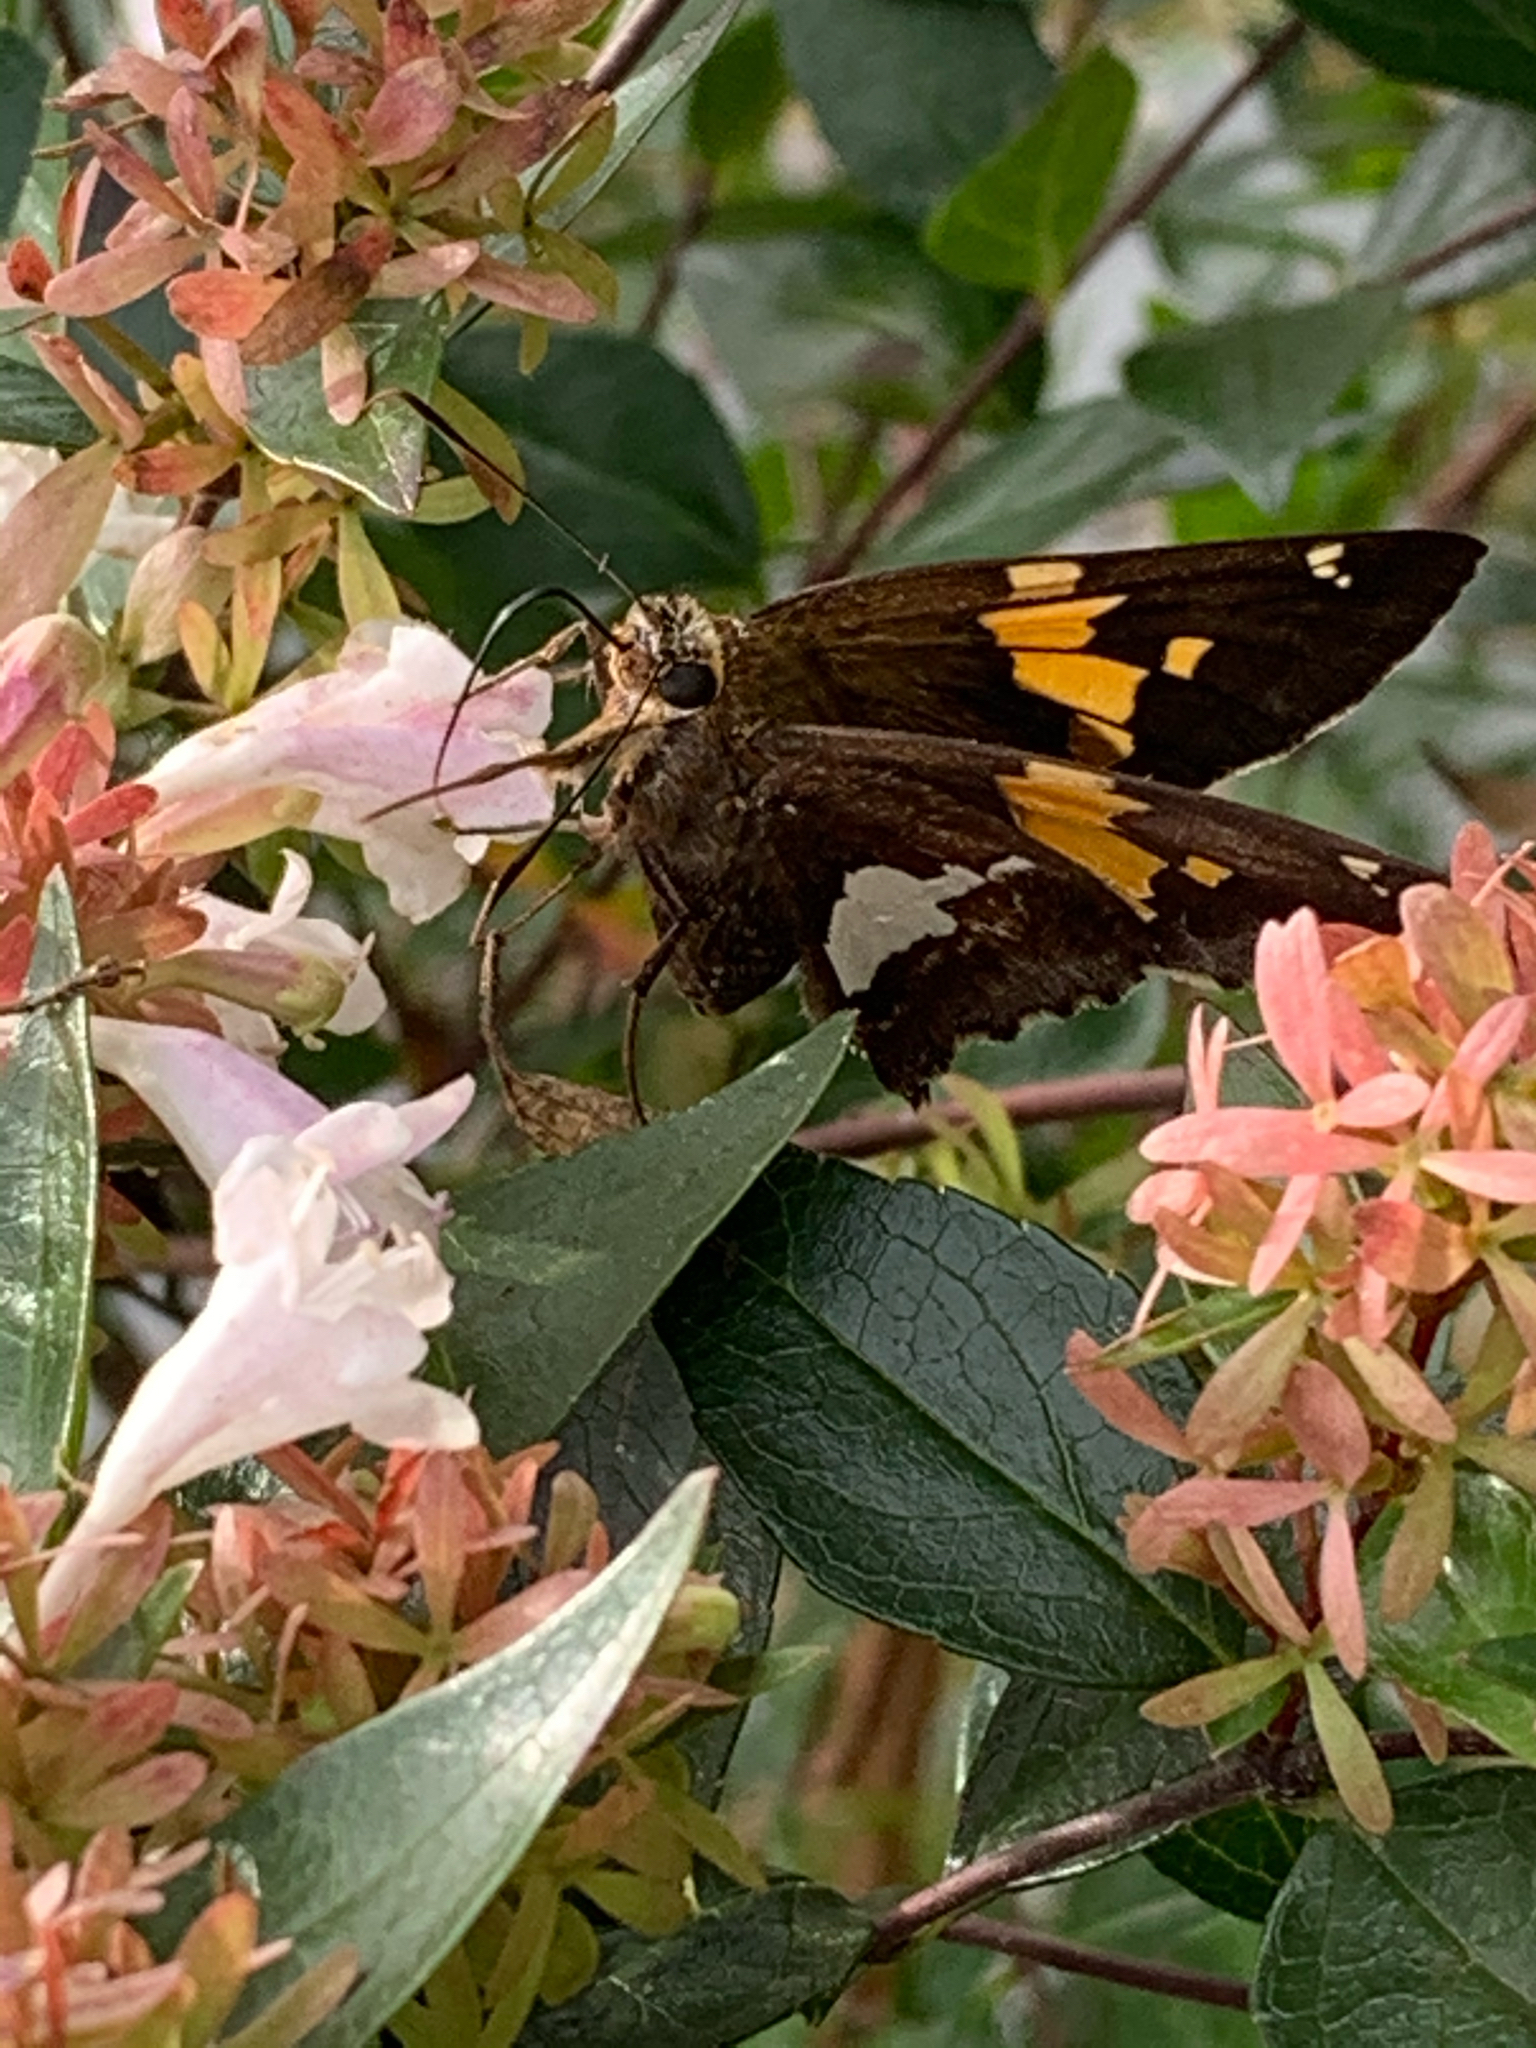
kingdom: Animalia
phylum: Arthropoda
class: Insecta
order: Lepidoptera
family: Hesperiidae
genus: Epargyreus
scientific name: Epargyreus clarus
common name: Silver-spotted skipper
